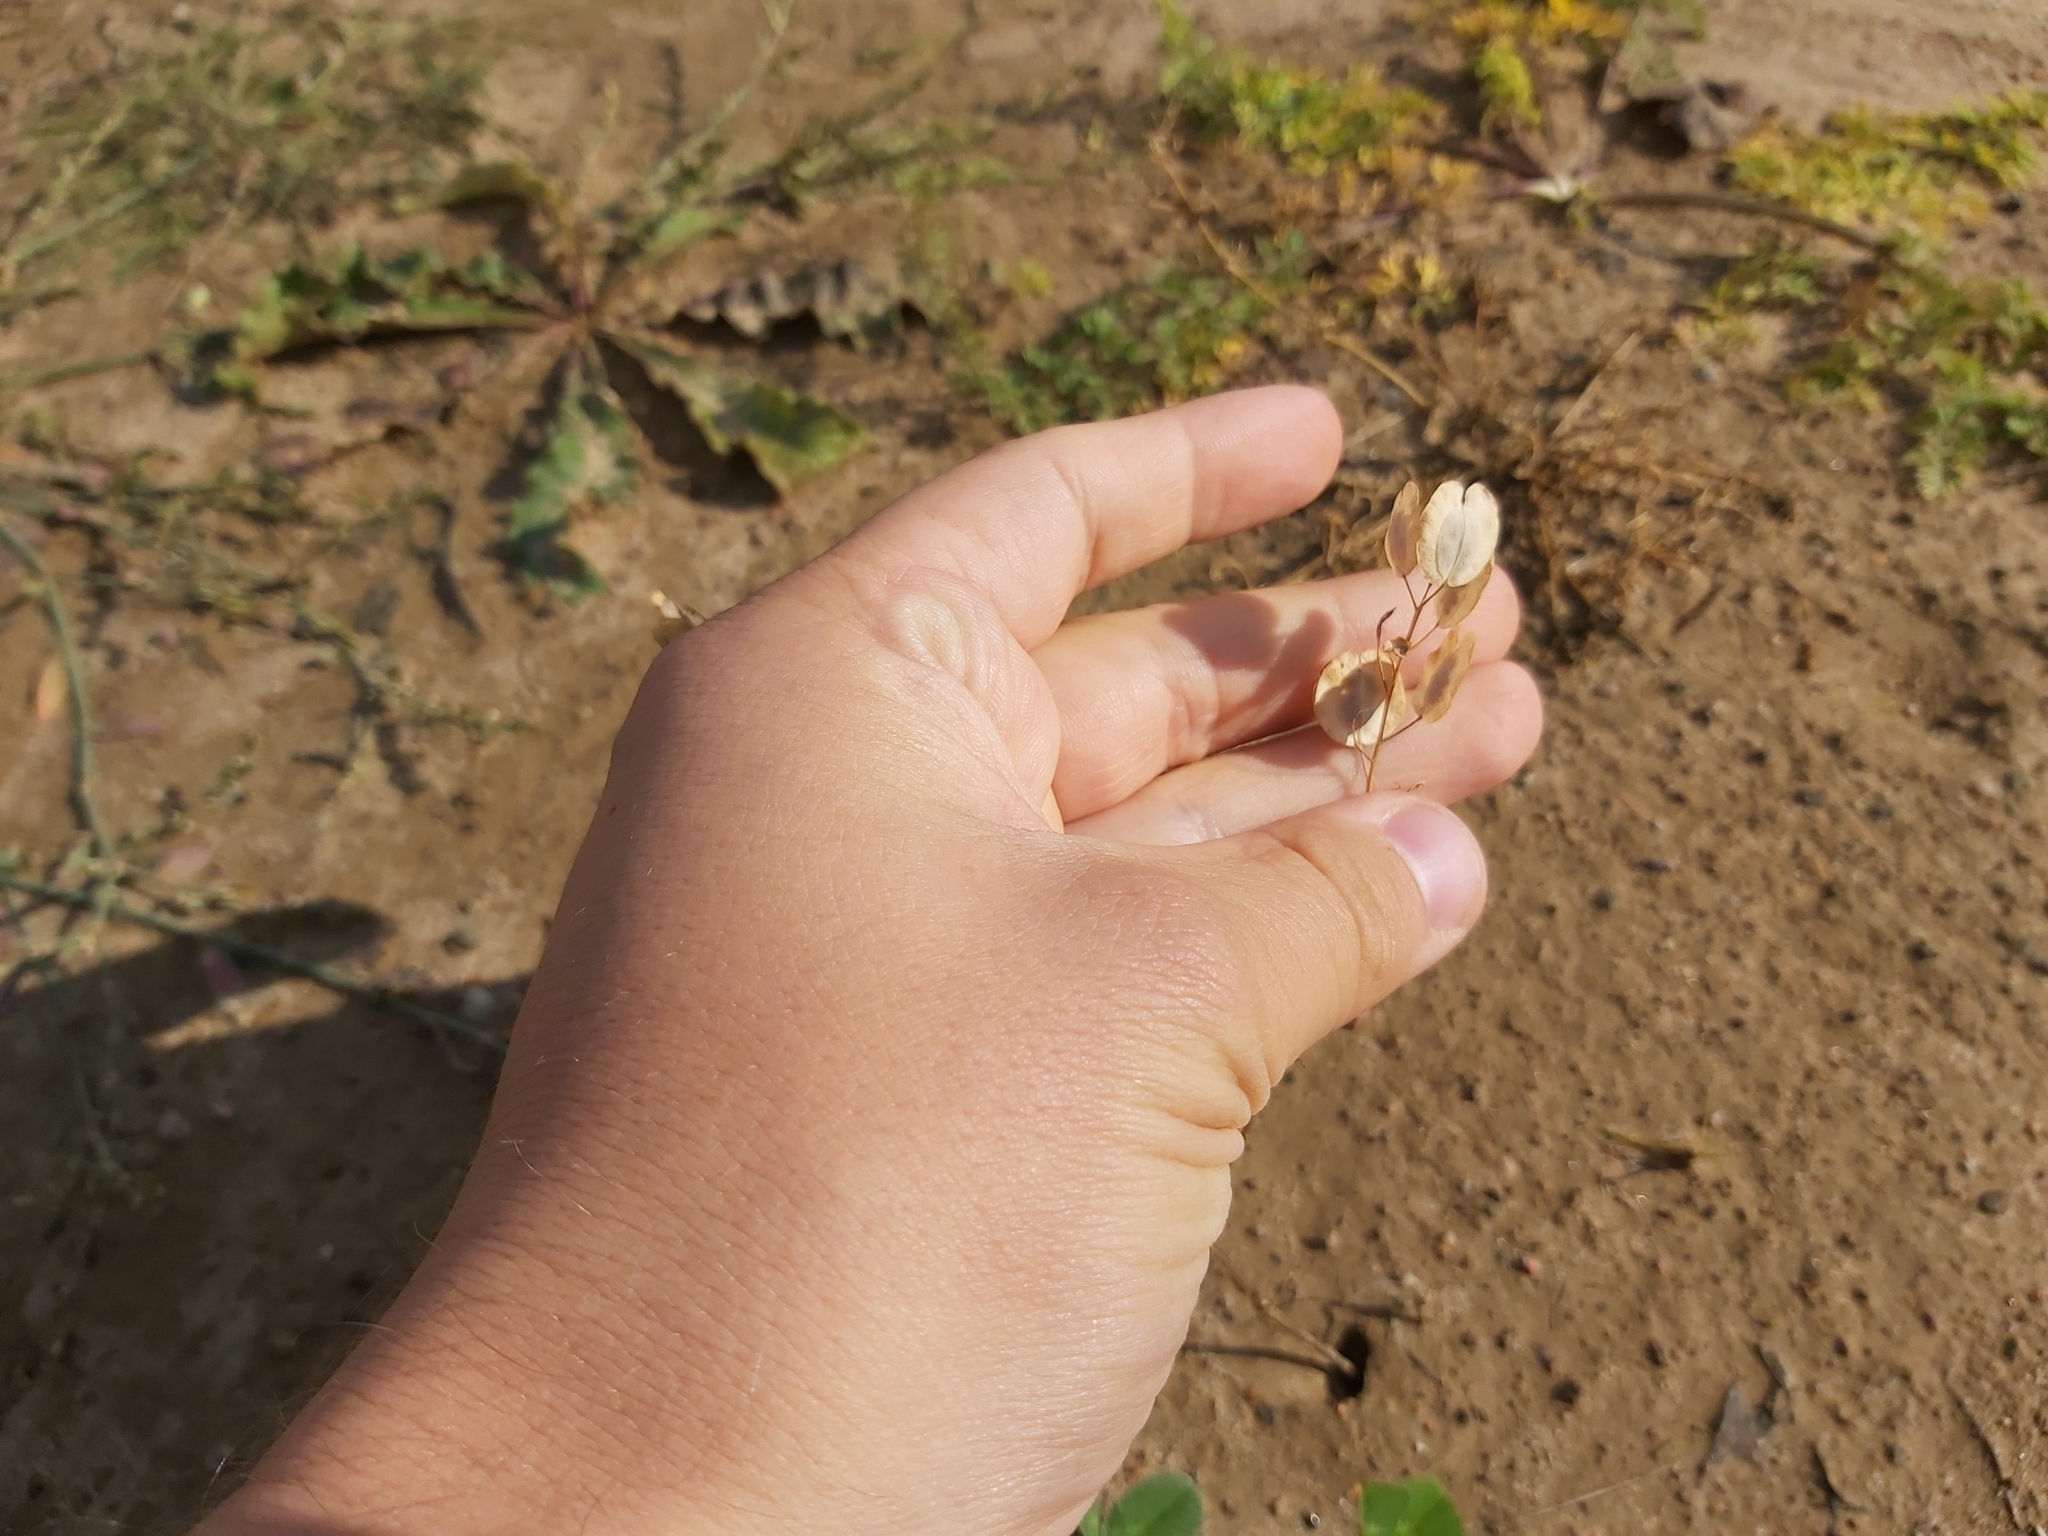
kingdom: Plantae
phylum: Tracheophyta
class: Magnoliopsida
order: Brassicales
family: Brassicaceae
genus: Thlaspi
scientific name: Thlaspi arvense
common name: Field pennycress
